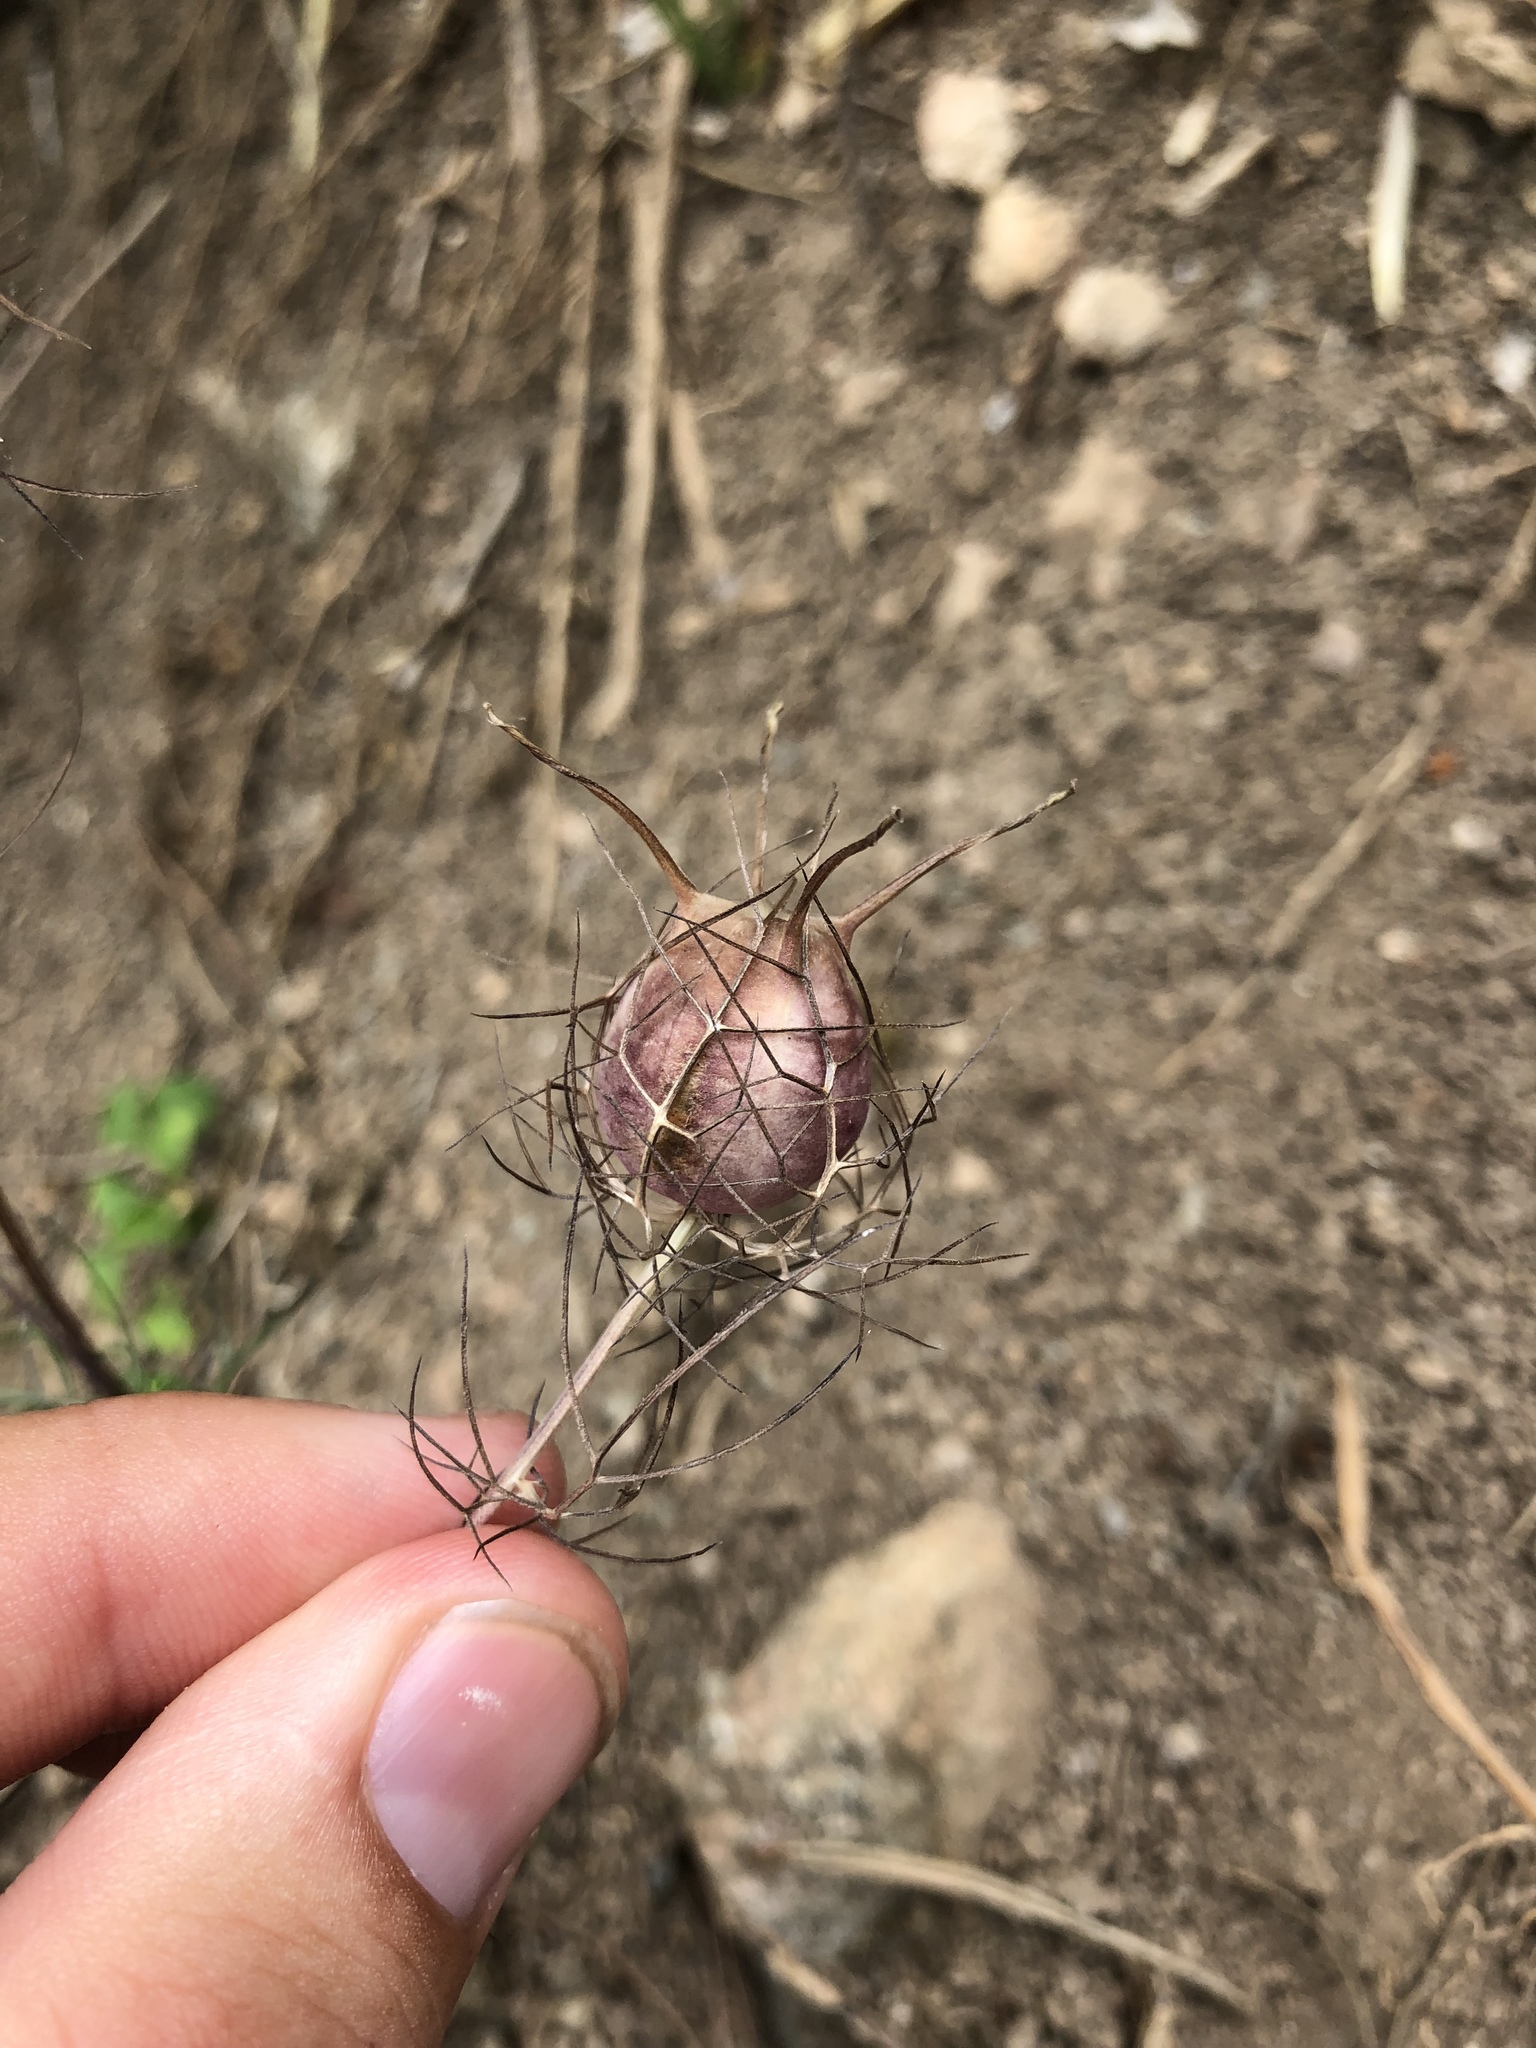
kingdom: Plantae
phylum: Tracheophyta
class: Magnoliopsida
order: Ranunculales
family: Ranunculaceae
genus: Nigella
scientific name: Nigella damascena
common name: Love-in-a-mist
